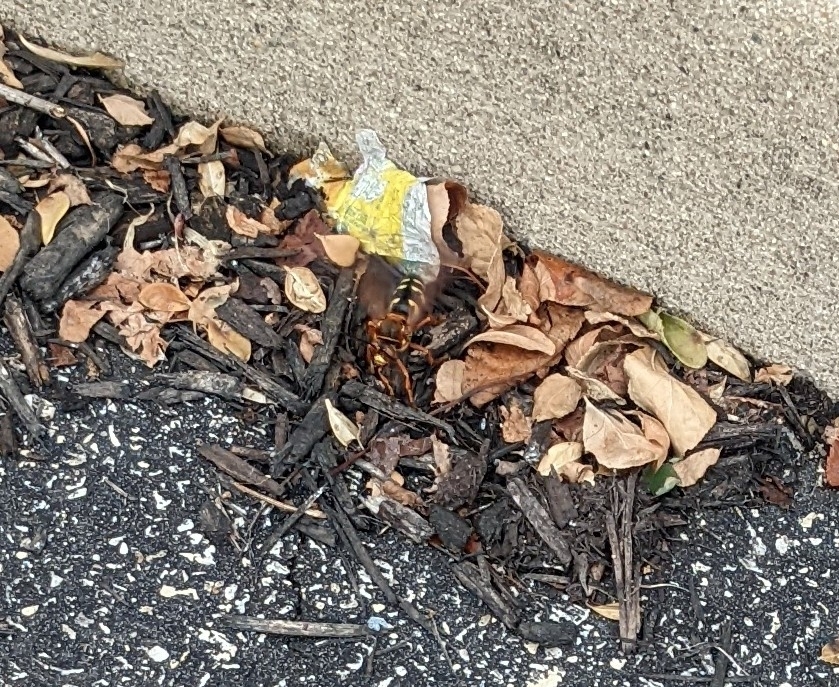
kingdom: Animalia
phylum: Arthropoda
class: Insecta
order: Hymenoptera
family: Crabronidae
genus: Sphecius
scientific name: Sphecius speciosus
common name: Cicada killer
